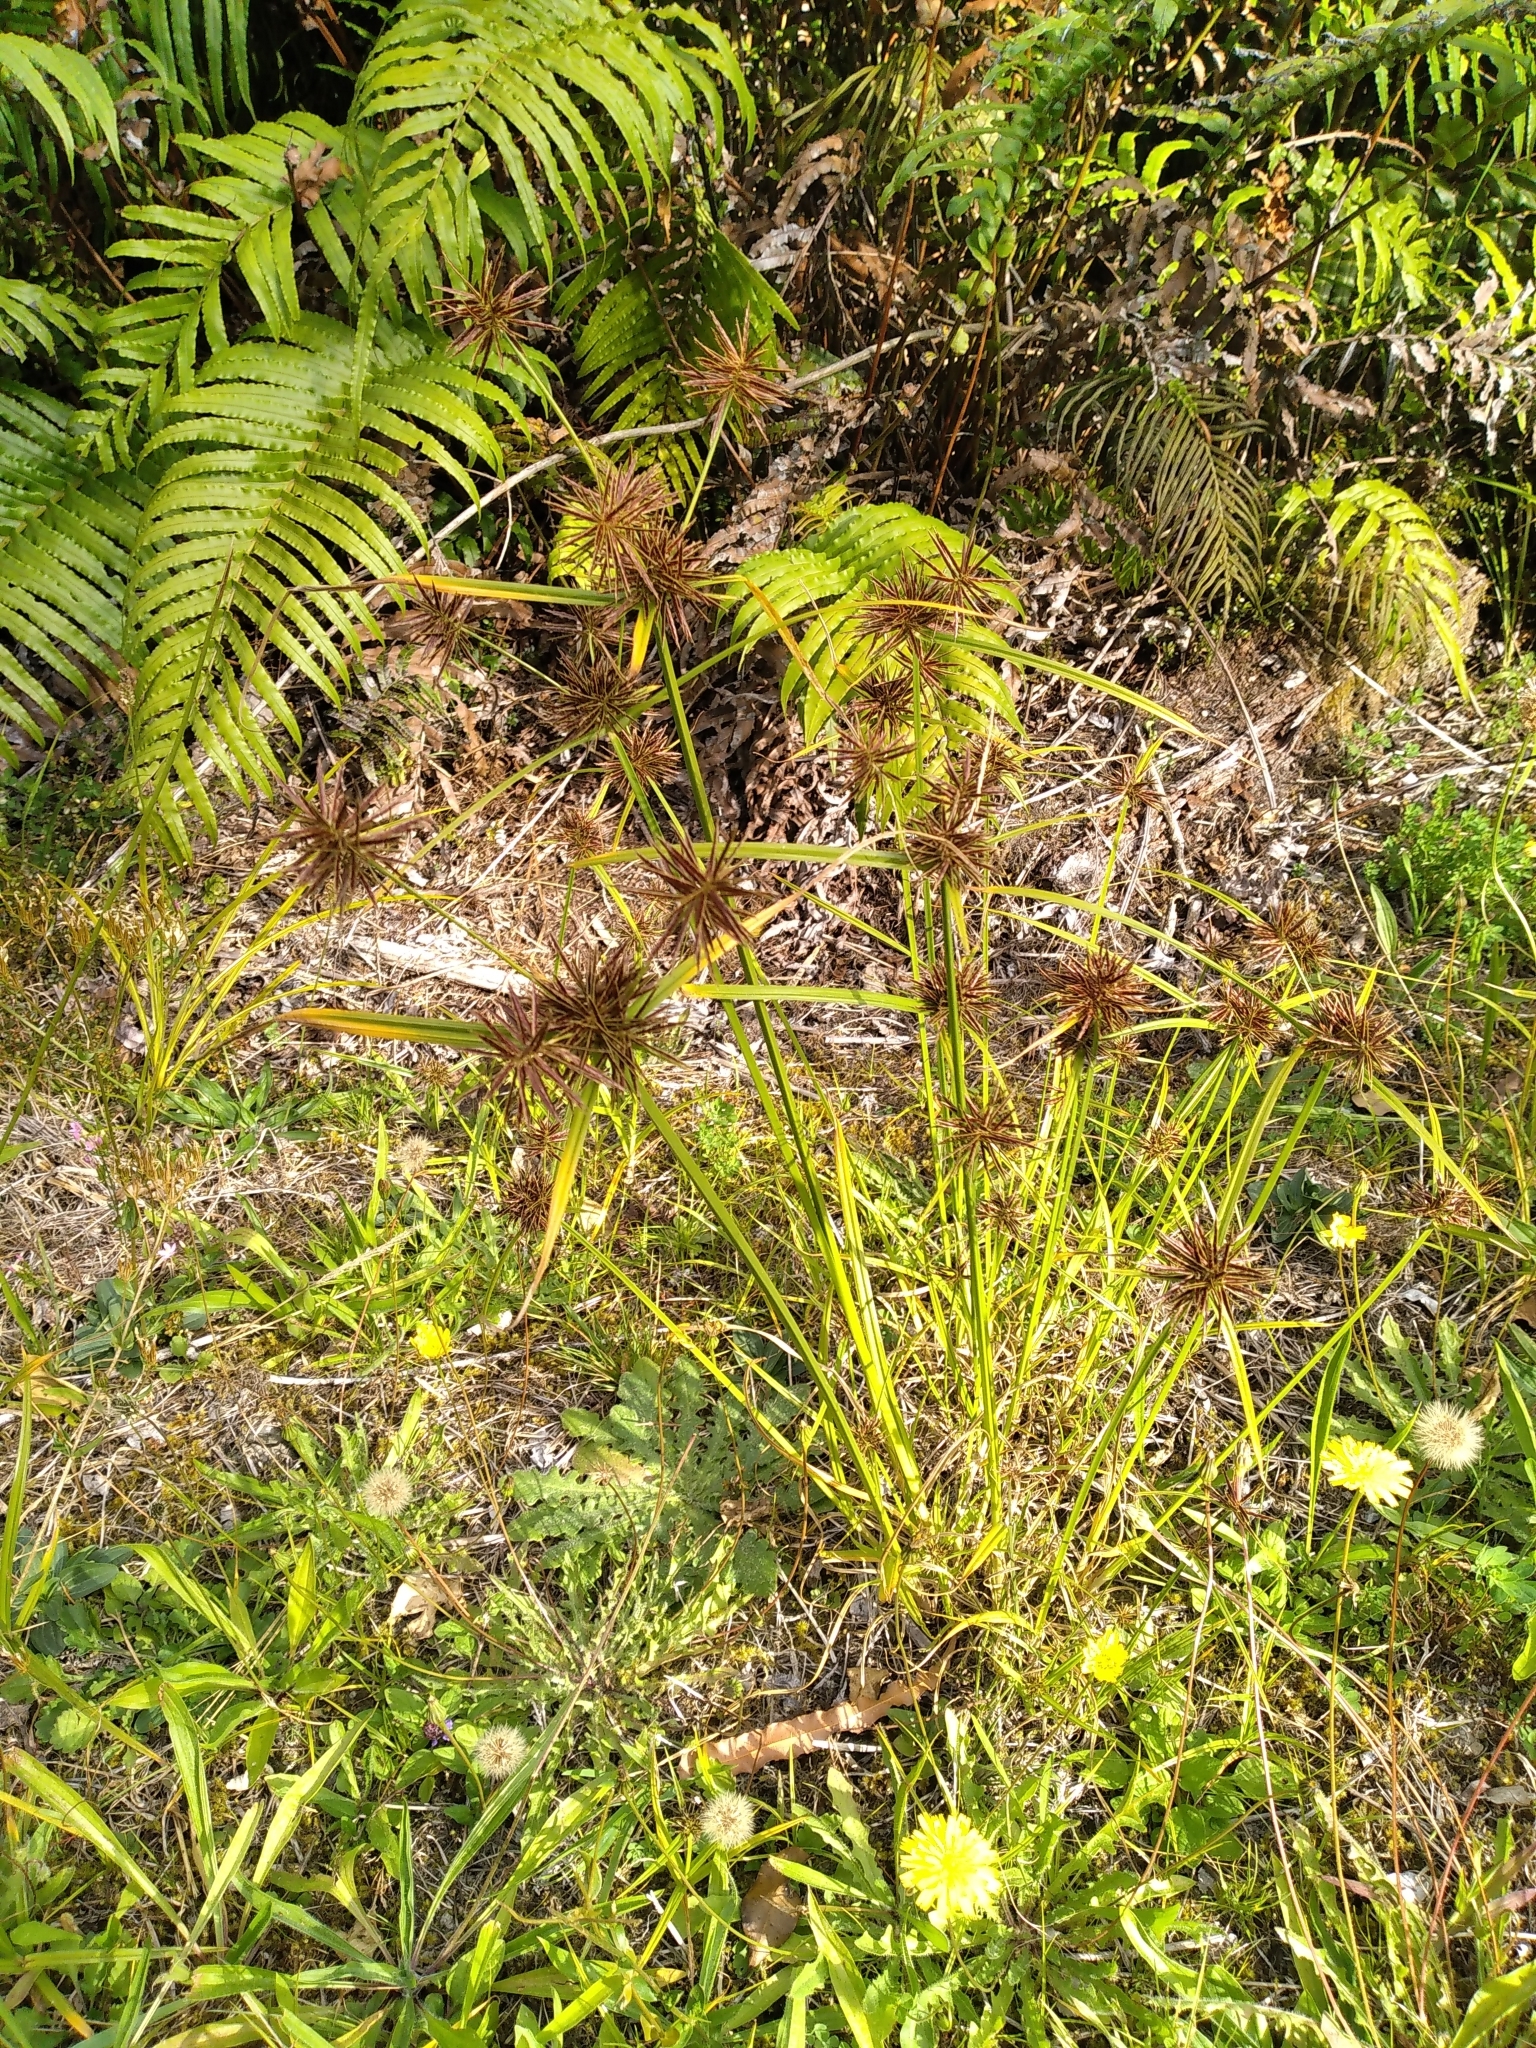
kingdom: Plantae
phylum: Tracheophyta
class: Liliopsida
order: Poales
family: Cyperaceae
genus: Cyperus
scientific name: Cyperus congestus
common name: Dense flat sedge
